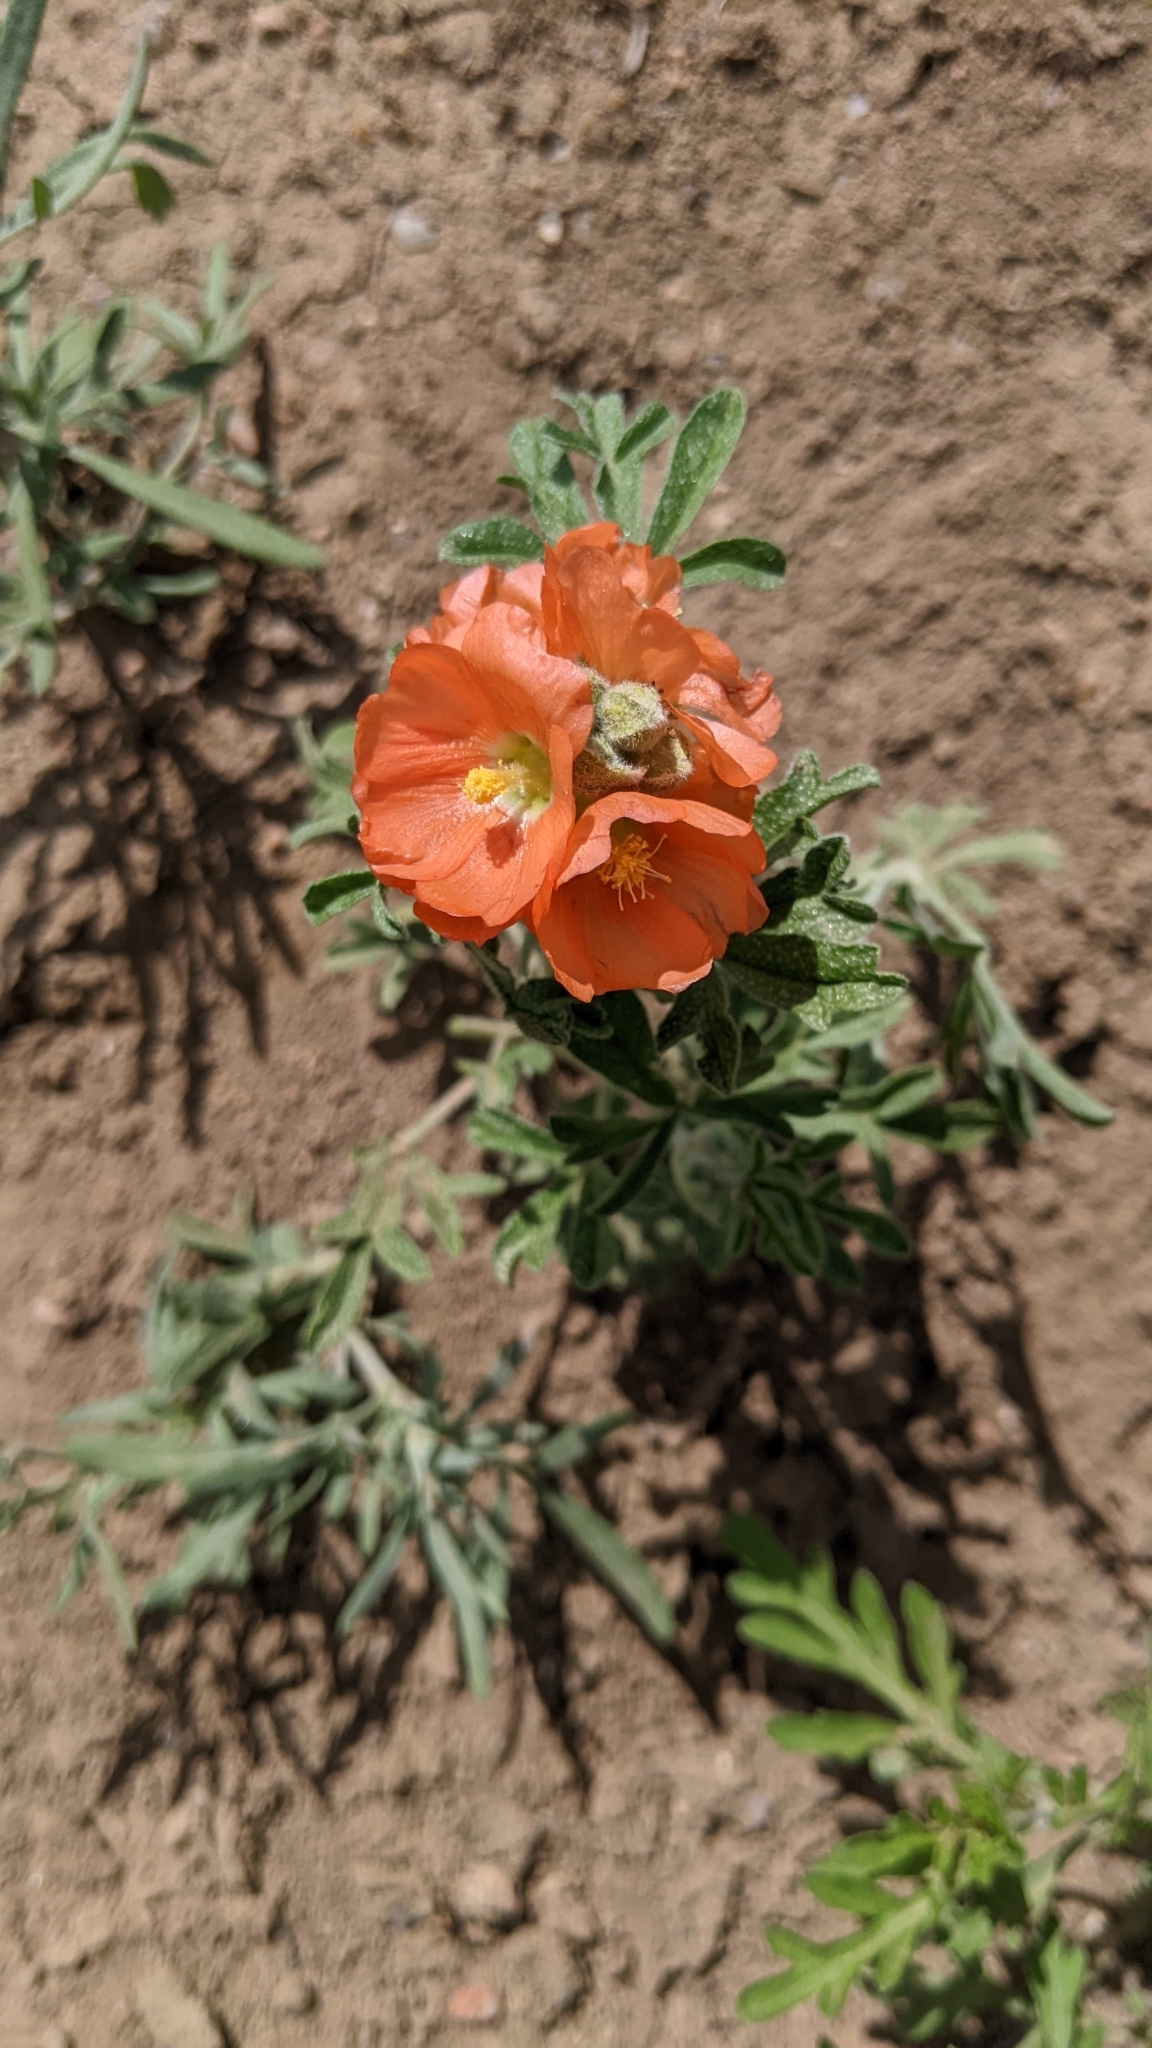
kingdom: Plantae
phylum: Tracheophyta
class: Magnoliopsida
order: Malvales
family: Malvaceae
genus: Sphaeralcea
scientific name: Sphaeralcea coccinea
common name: Moss-rose
